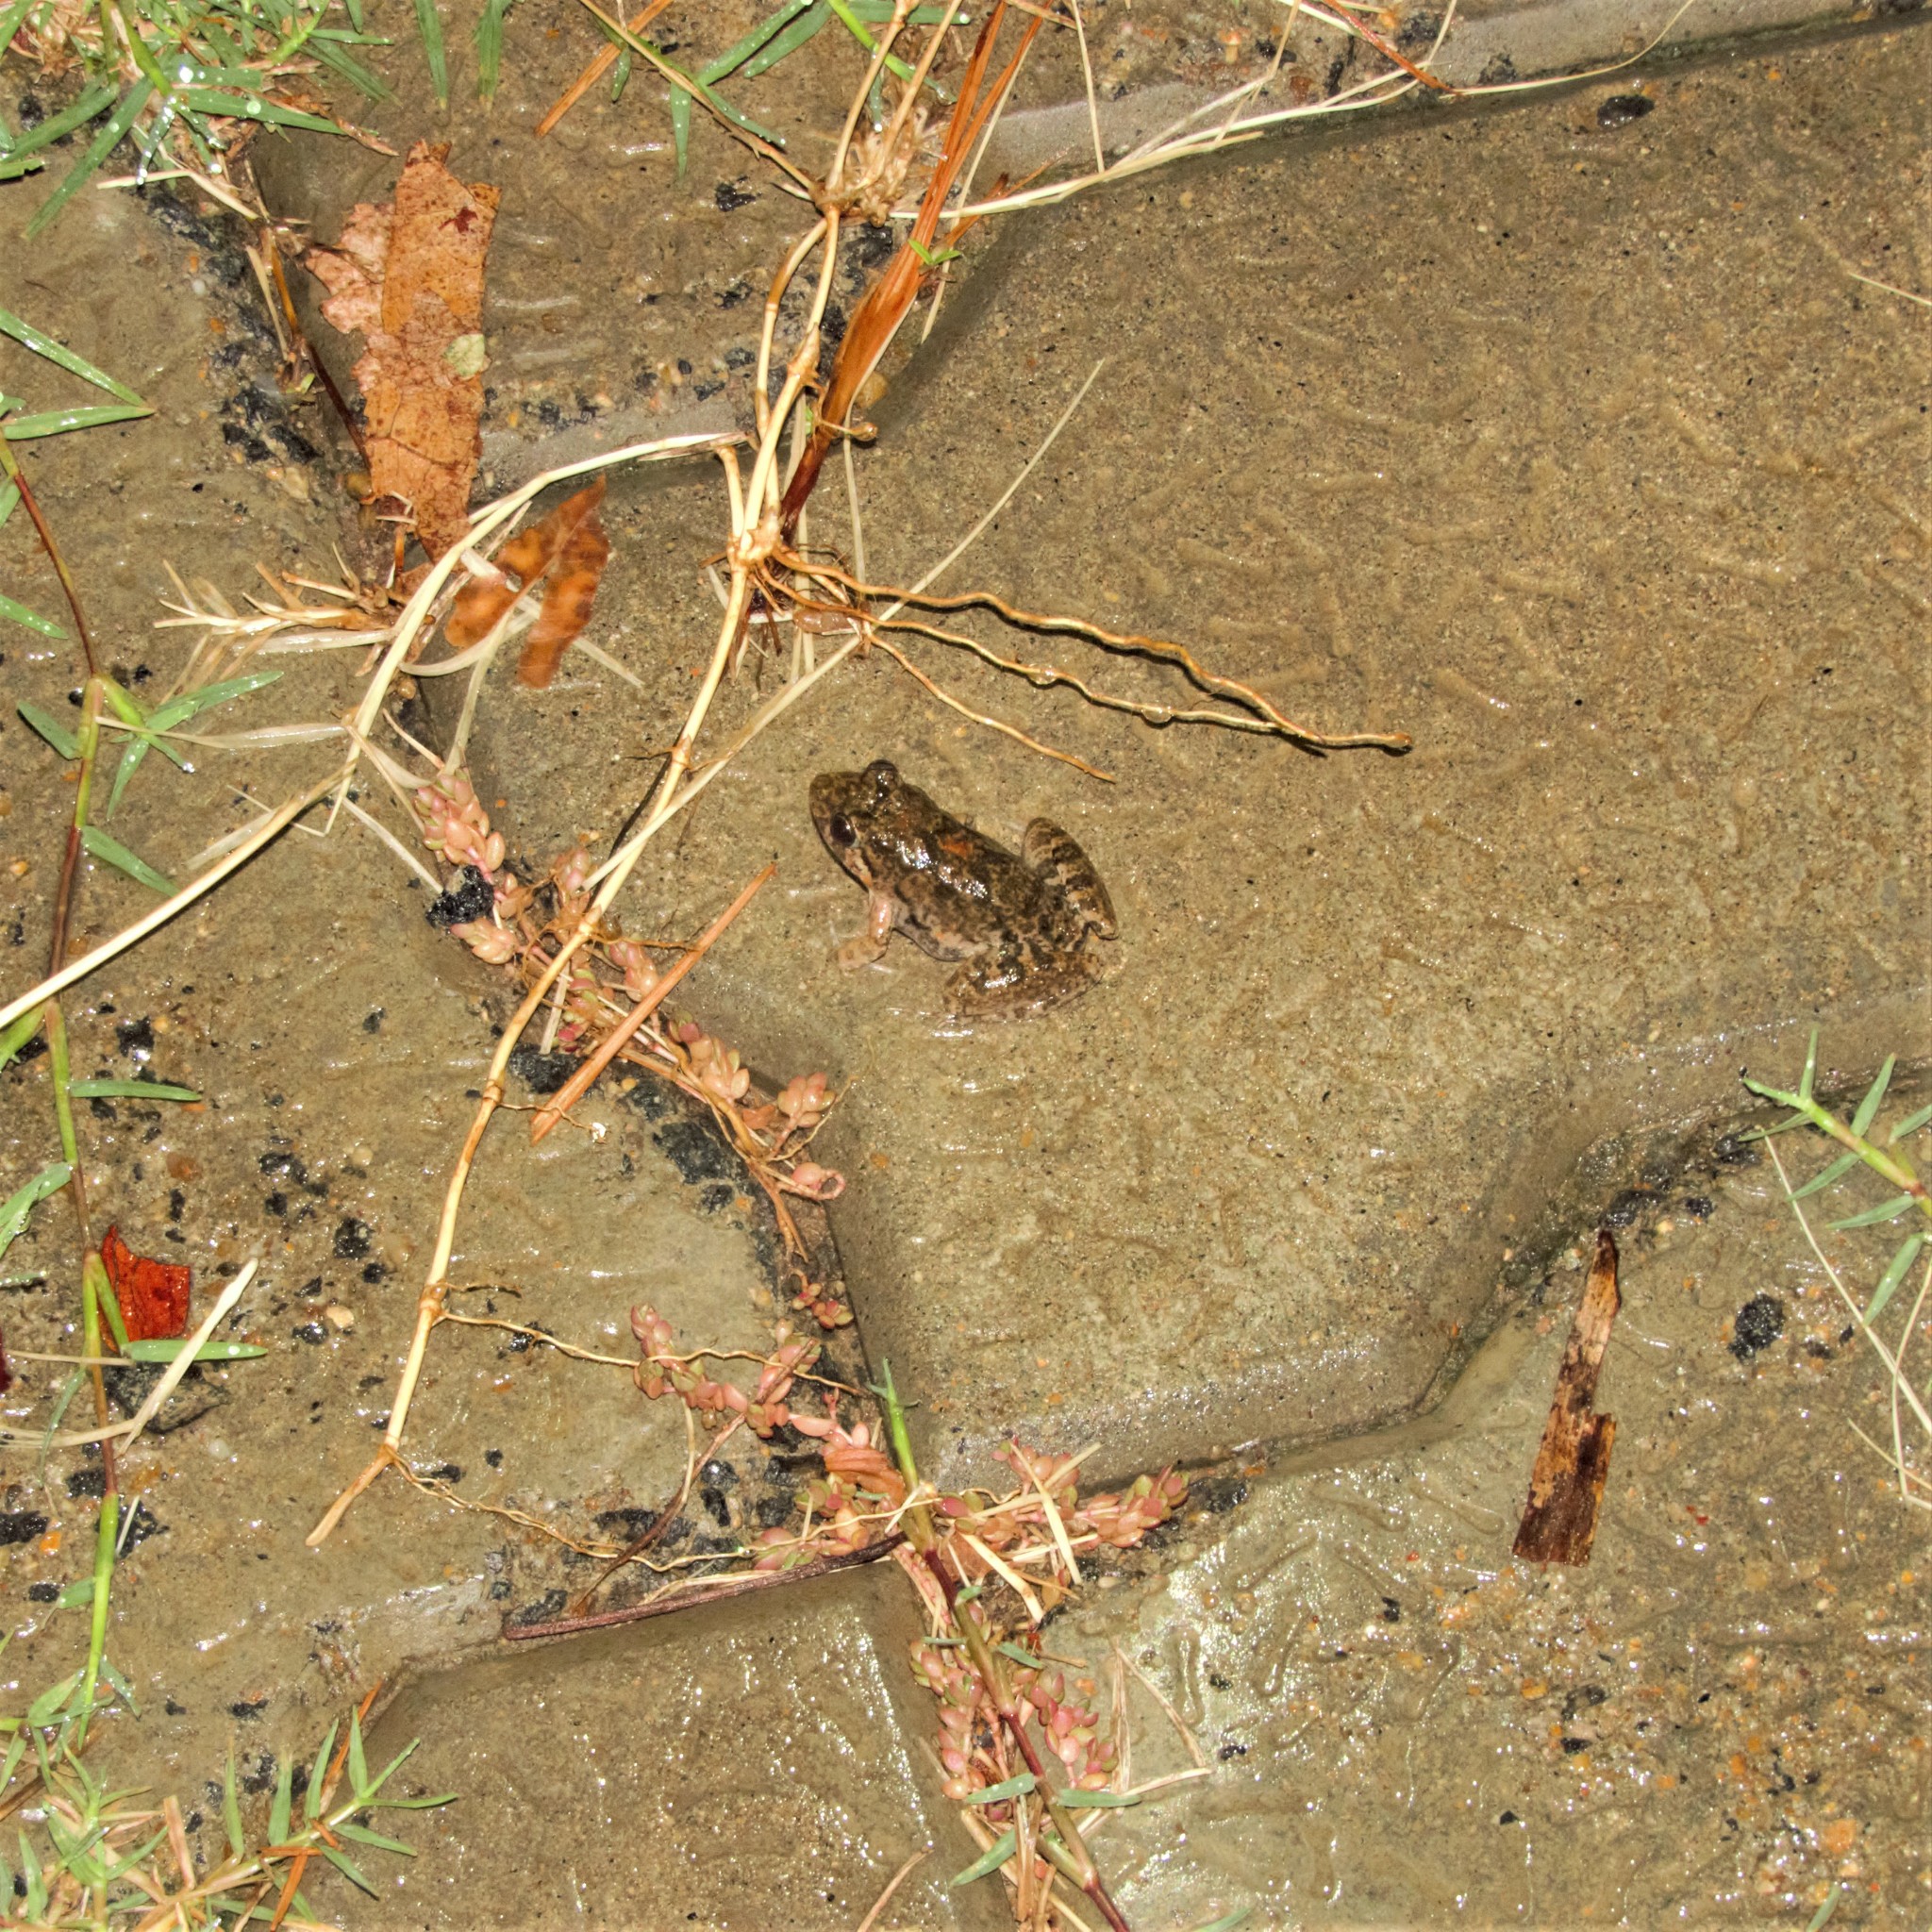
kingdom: Animalia
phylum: Chordata
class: Amphibia
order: Anura
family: Dicroglossidae
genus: Euphlyctis
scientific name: Euphlyctis cyanophlyctis
